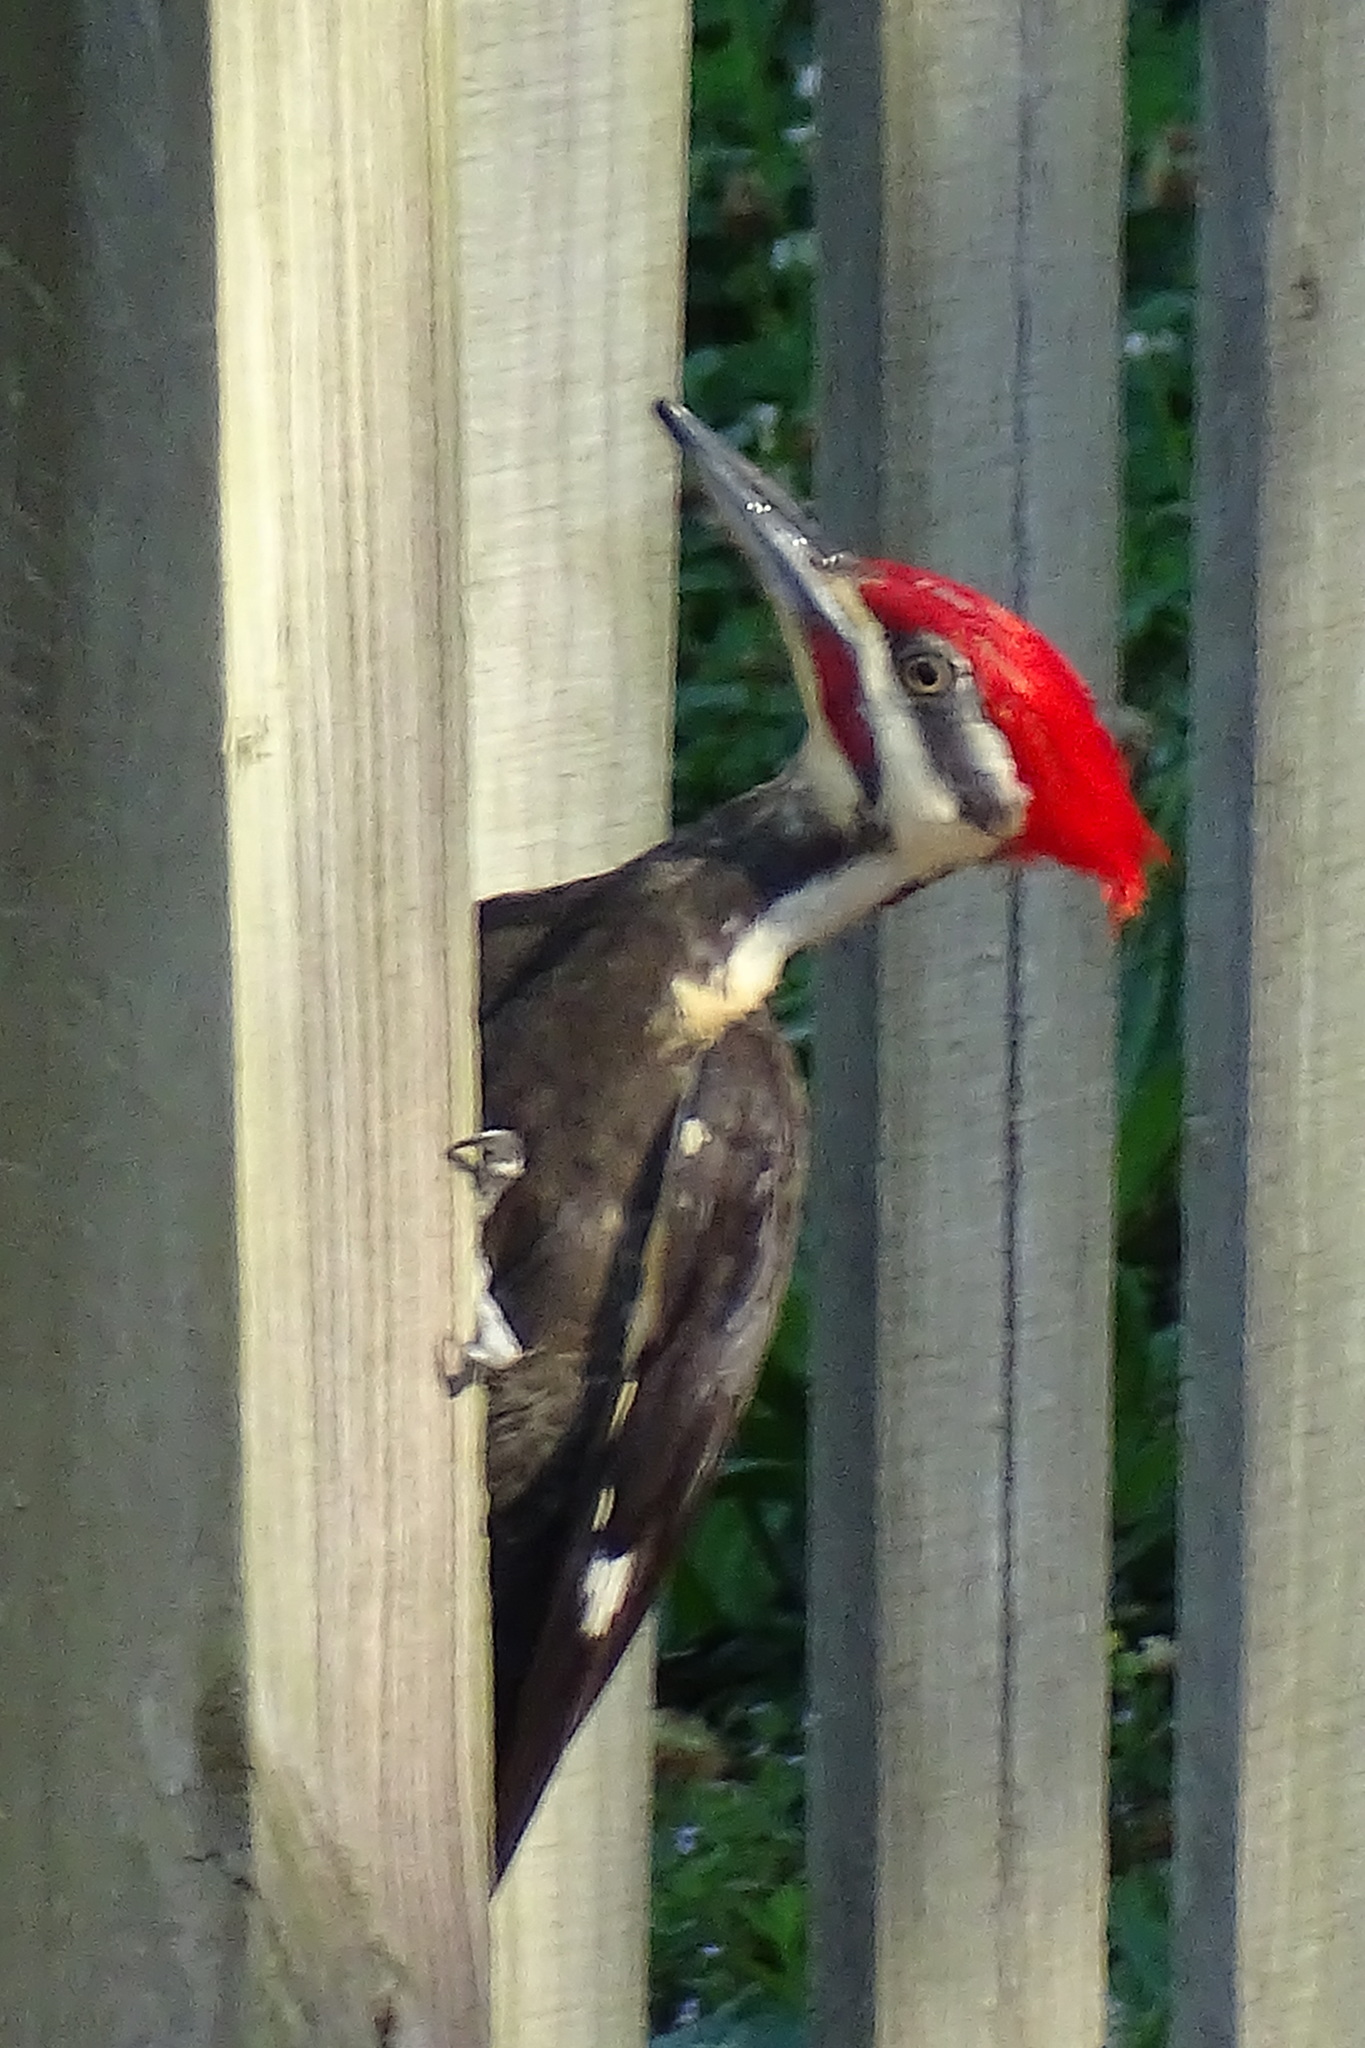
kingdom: Animalia
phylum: Chordata
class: Aves
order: Piciformes
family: Picidae
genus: Dryocopus
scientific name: Dryocopus pileatus
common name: Pileated woodpecker
